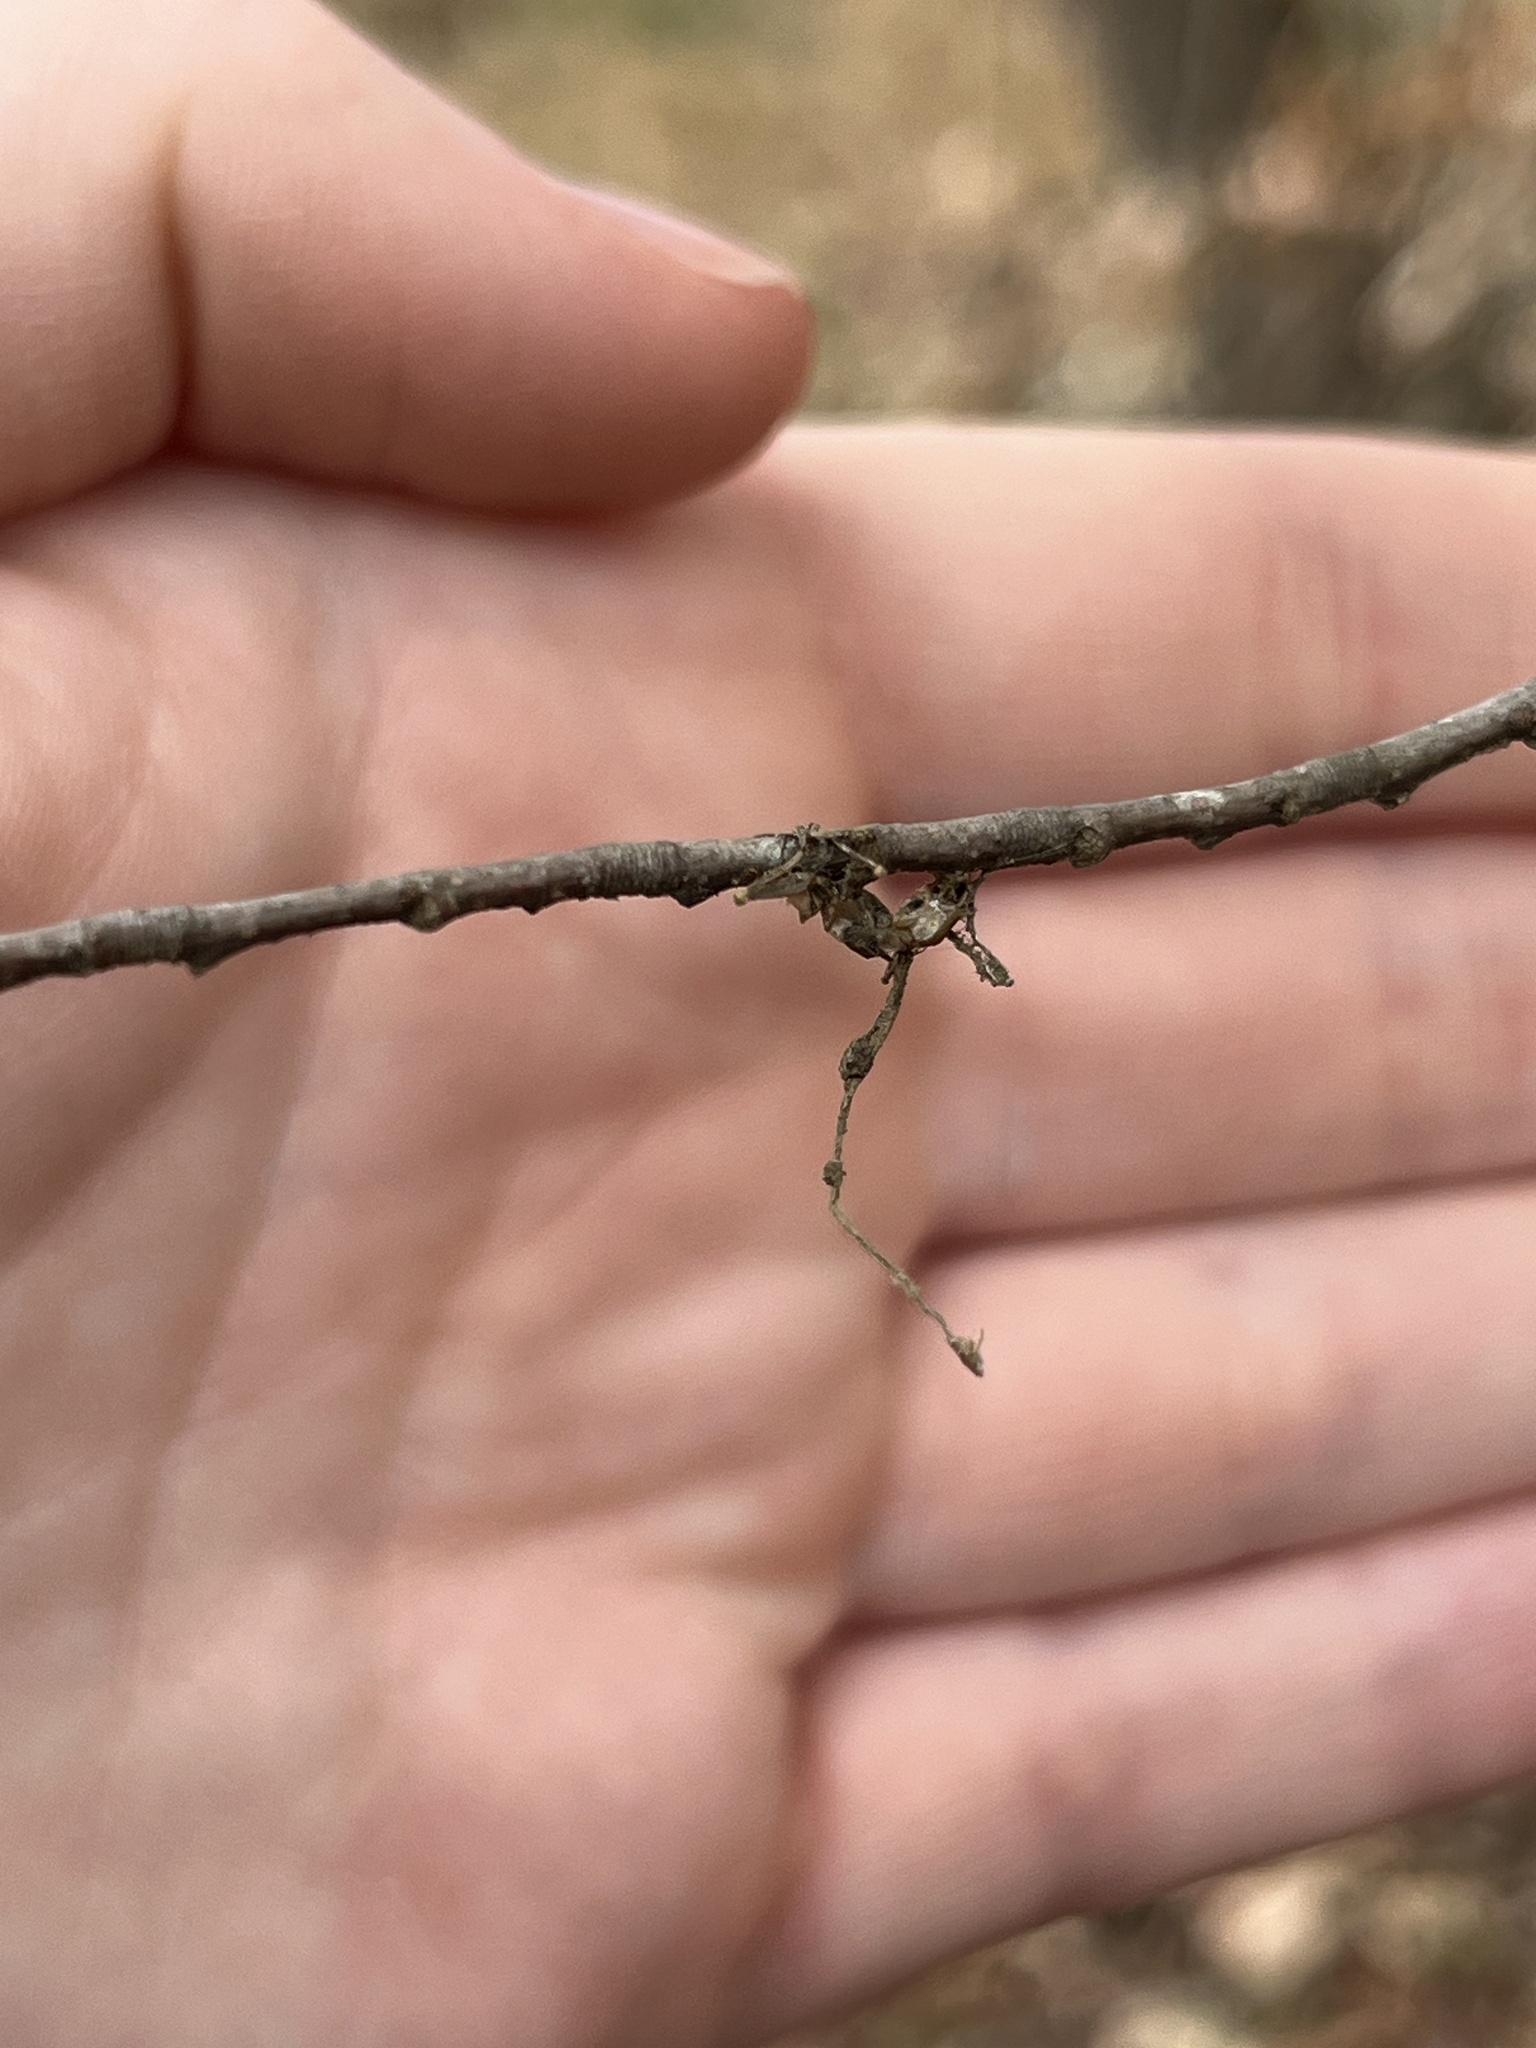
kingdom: Fungi
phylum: Ascomycota
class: Sordariomycetes
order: Hypocreales
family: Ophiocordycipitaceae
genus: Ophiocordyceps
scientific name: Ophiocordyceps kimflemingiae
